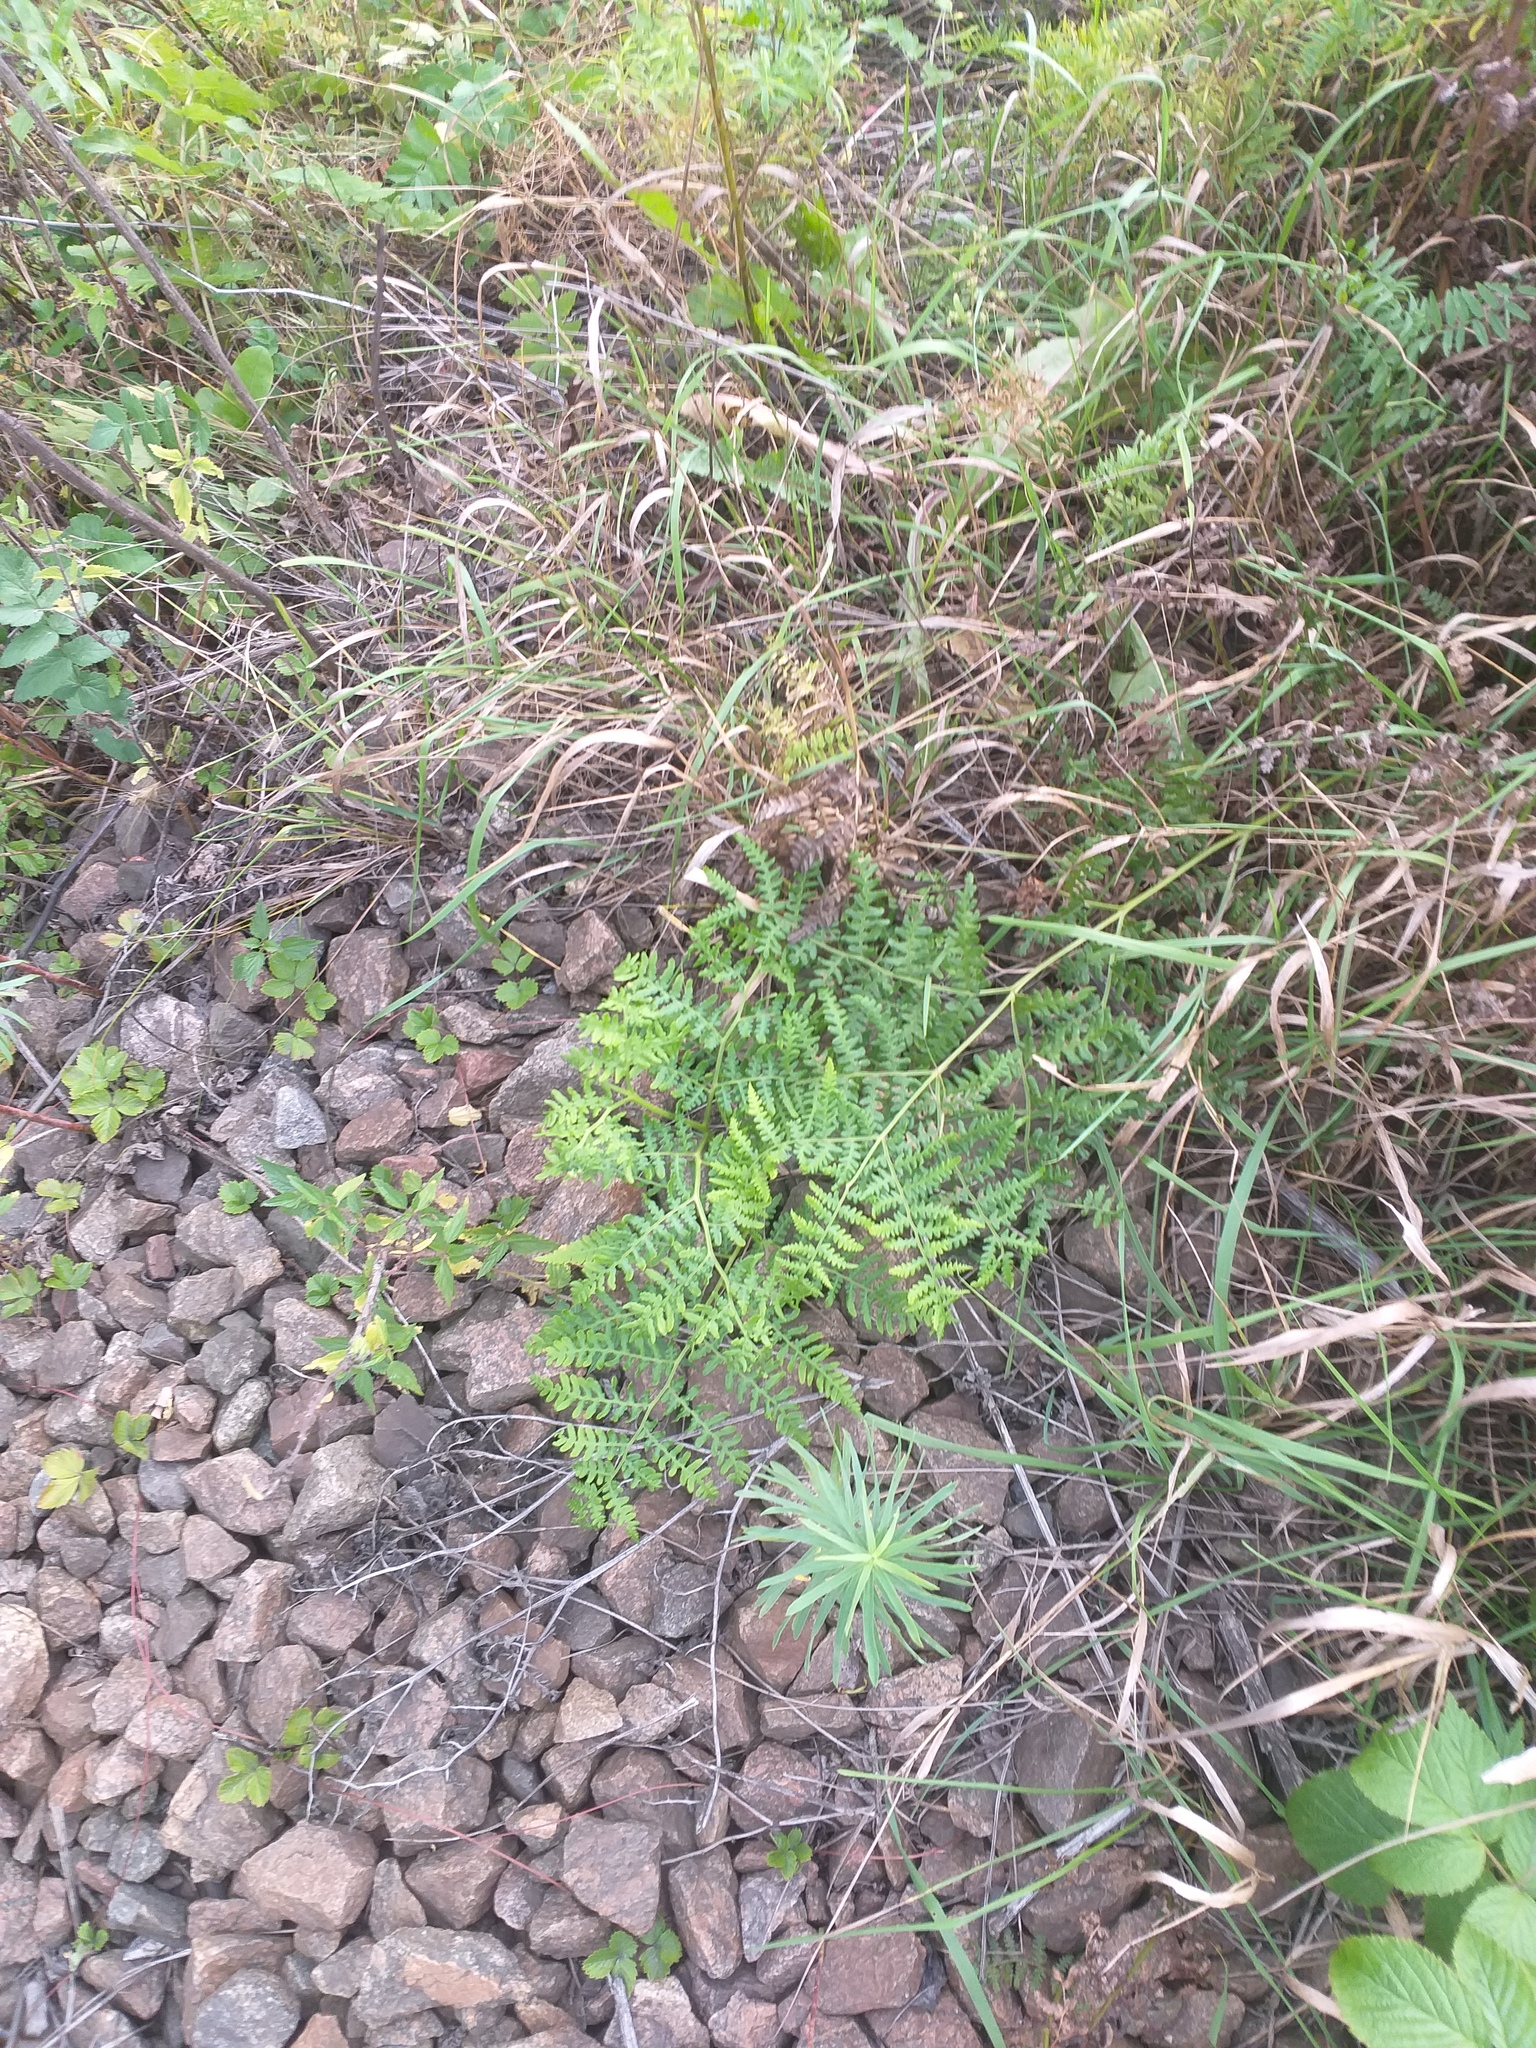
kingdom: Plantae
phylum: Tracheophyta
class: Polypodiopsida
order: Polypodiales
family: Dennstaedtiaceae
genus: Pteridium
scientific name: Pteridium aquilinum
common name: Bracken
